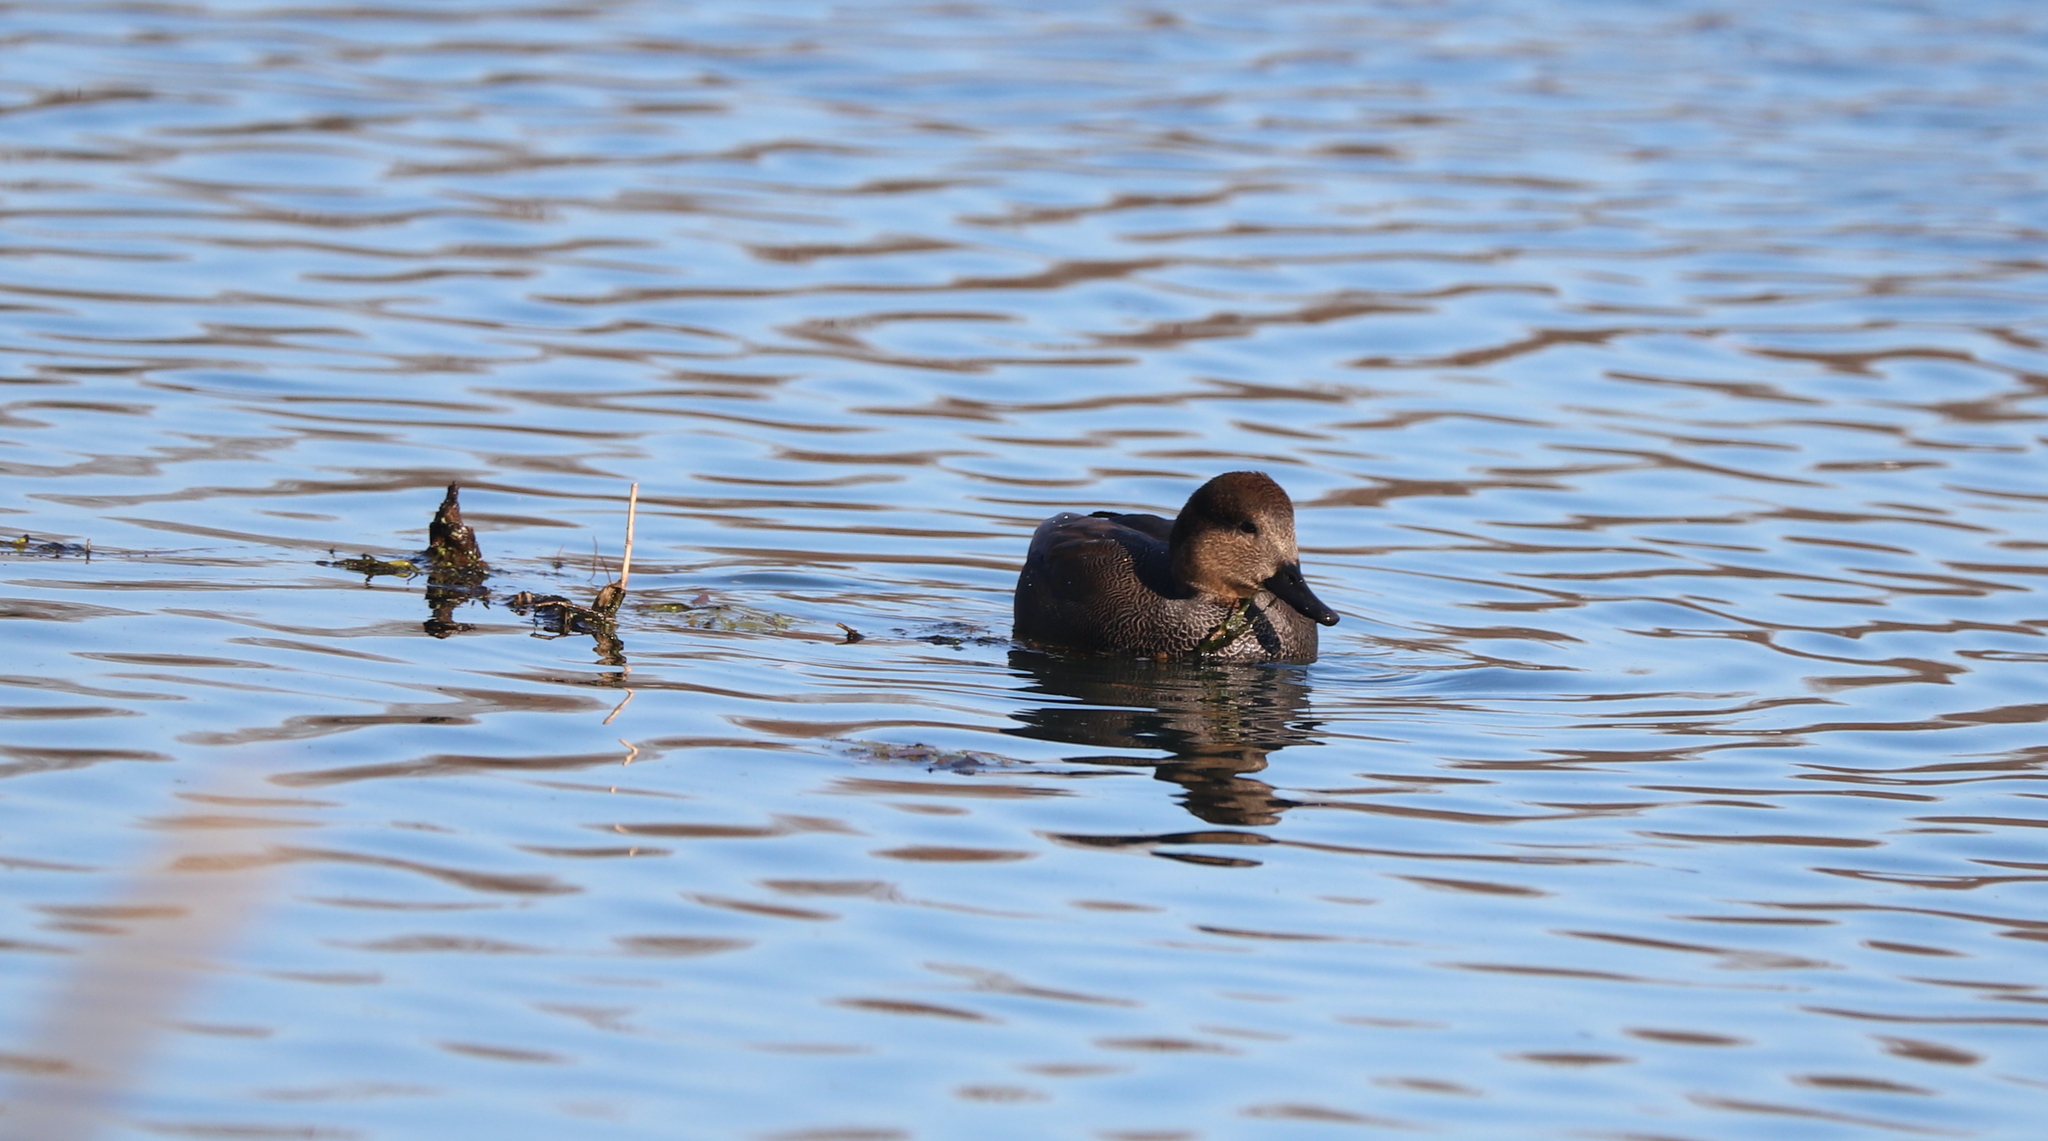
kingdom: Animalia
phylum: Chordata
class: Aves
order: Anseriformes
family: Anatidae
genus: Mareca
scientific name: Mareca strepera
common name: Gadwall
